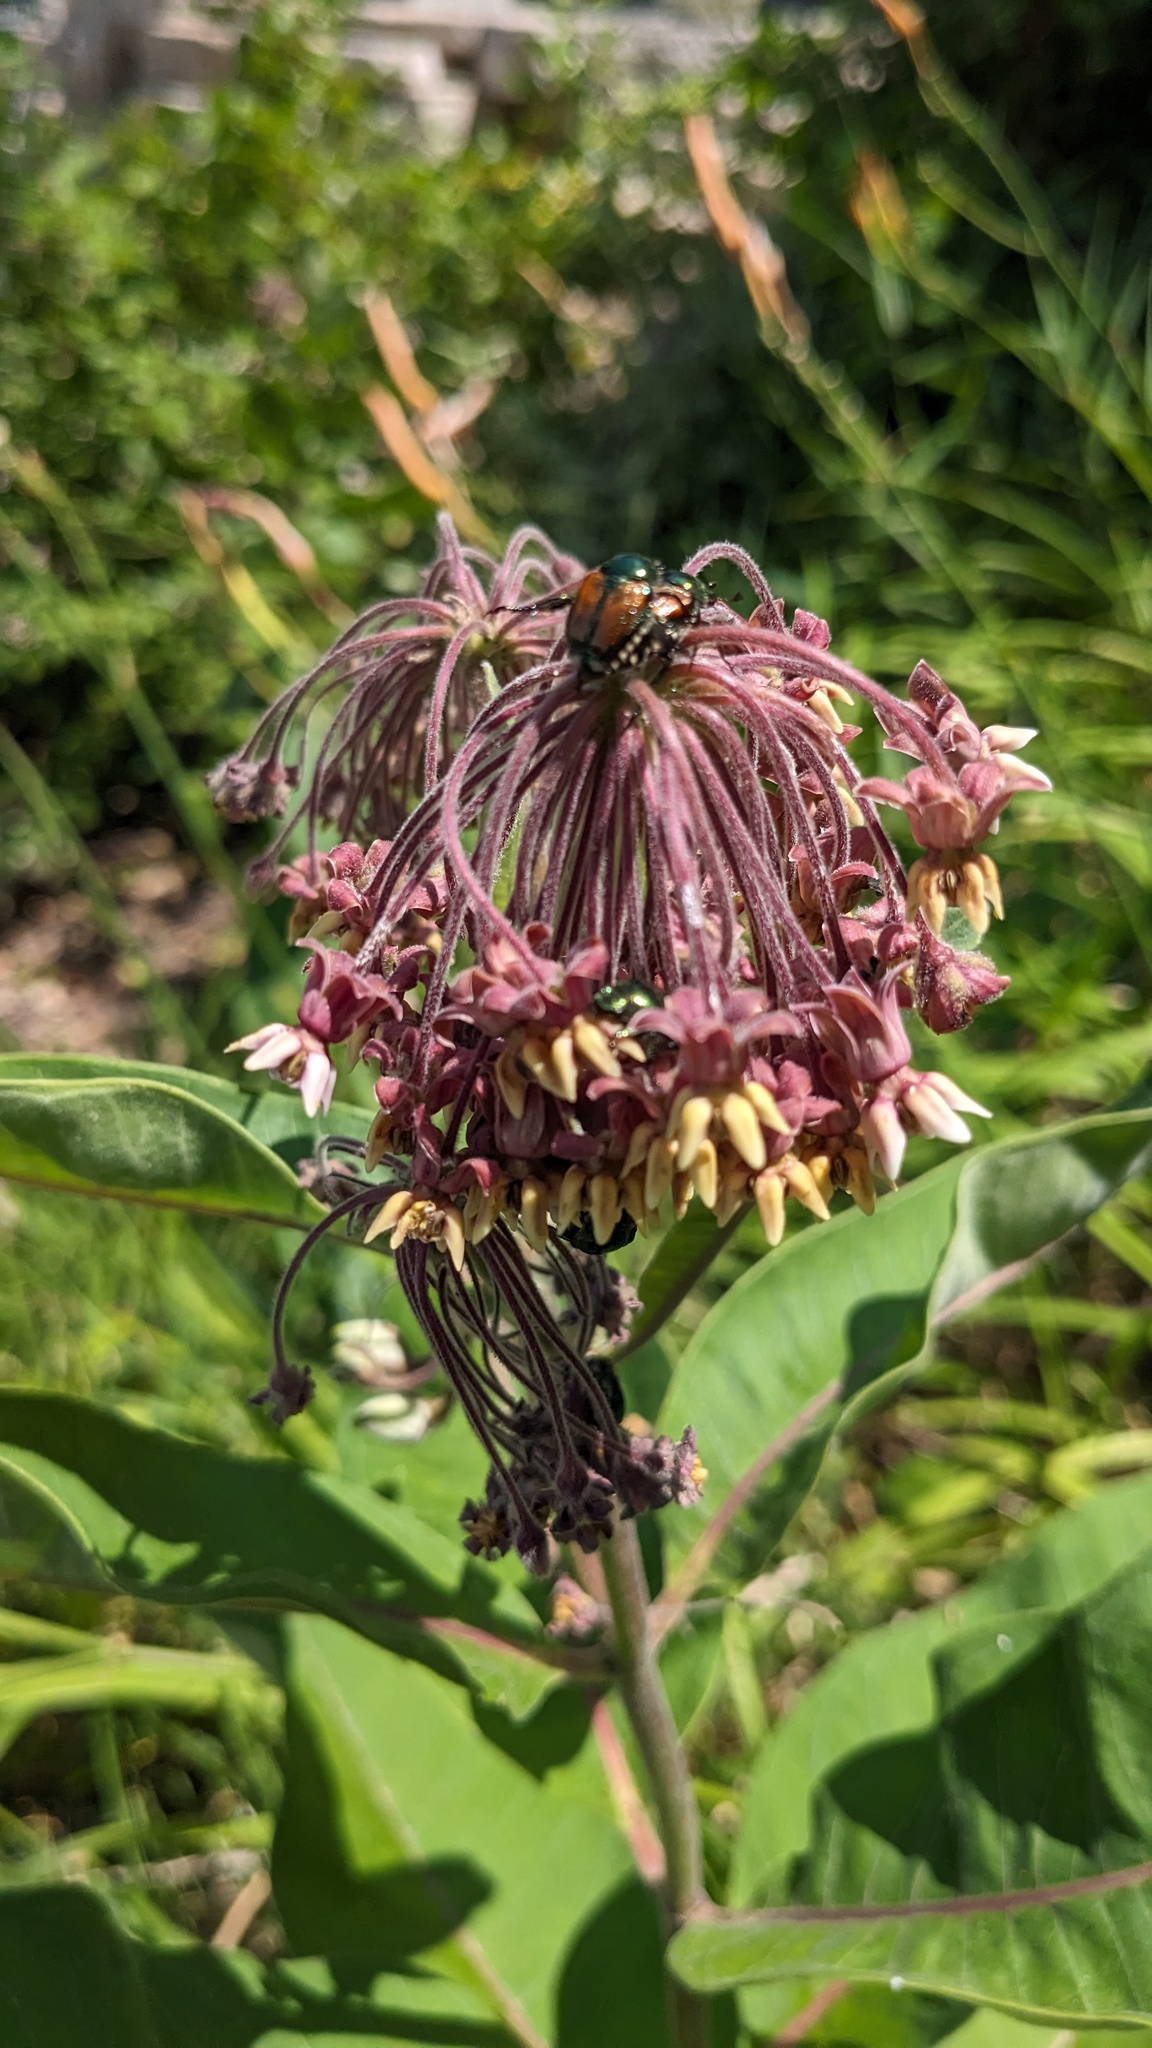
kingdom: Animalia
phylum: Arthropoda
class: Insecta
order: Coleoptera
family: Scarabaeidae
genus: Popillia
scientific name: Popillia japonica
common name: Japanese beetle
